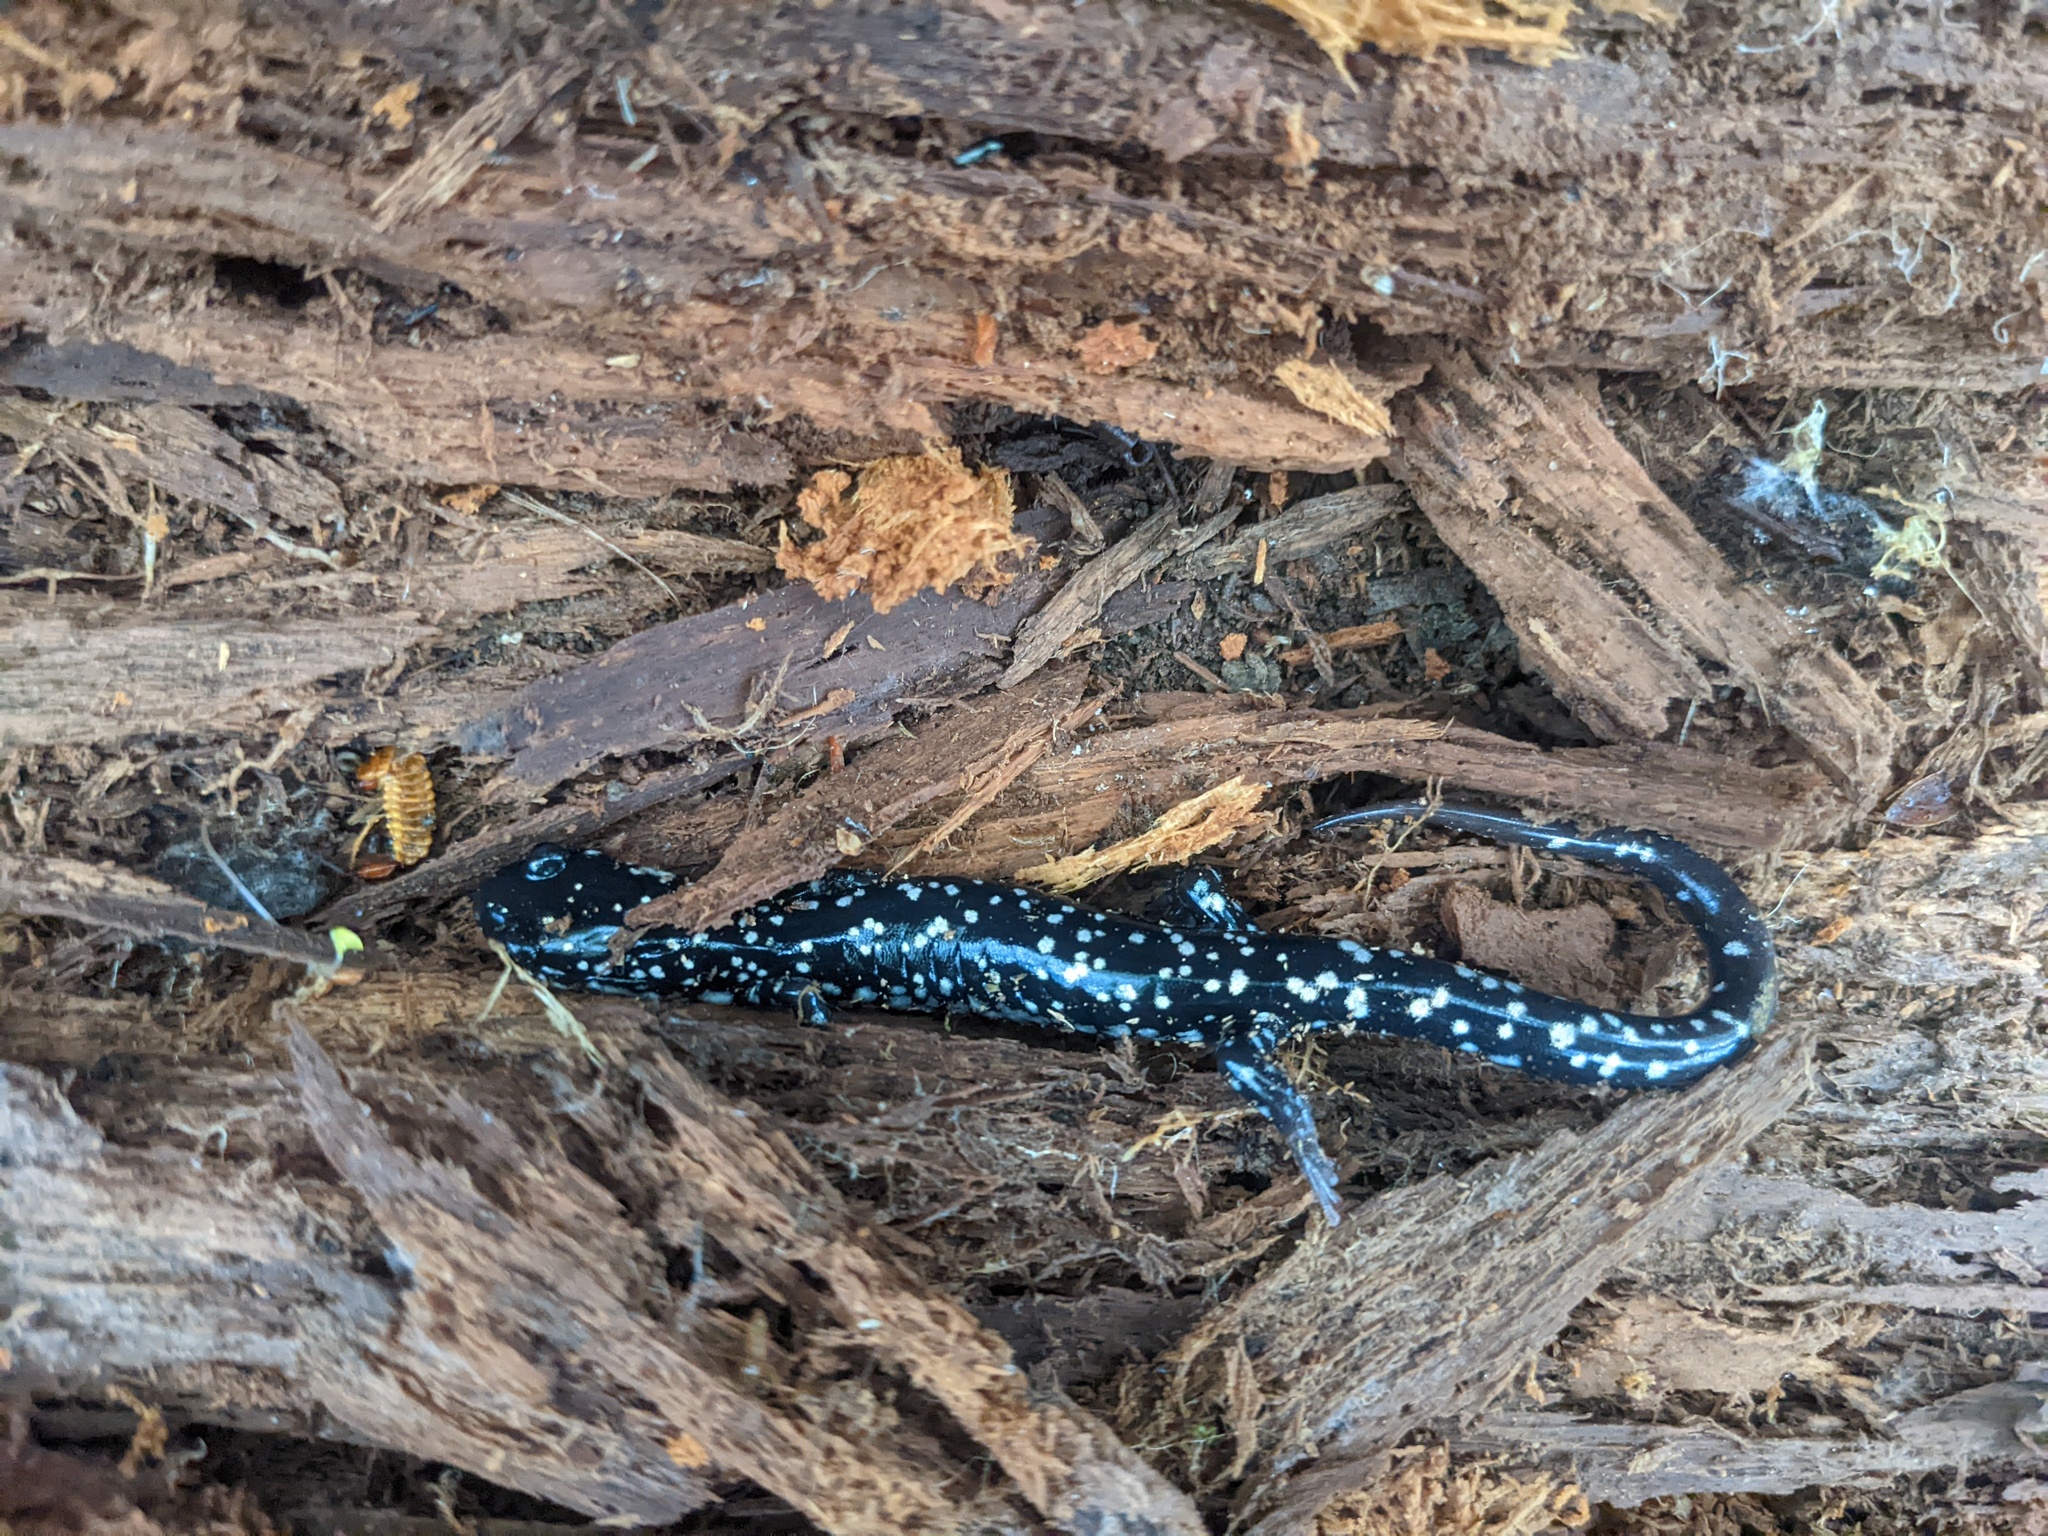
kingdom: Animalia
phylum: Chordata
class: Amphibia
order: Caudata
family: Plethodontidae
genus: Plethodon
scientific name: Plethodon glutinosus
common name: Northern slimy salamander
